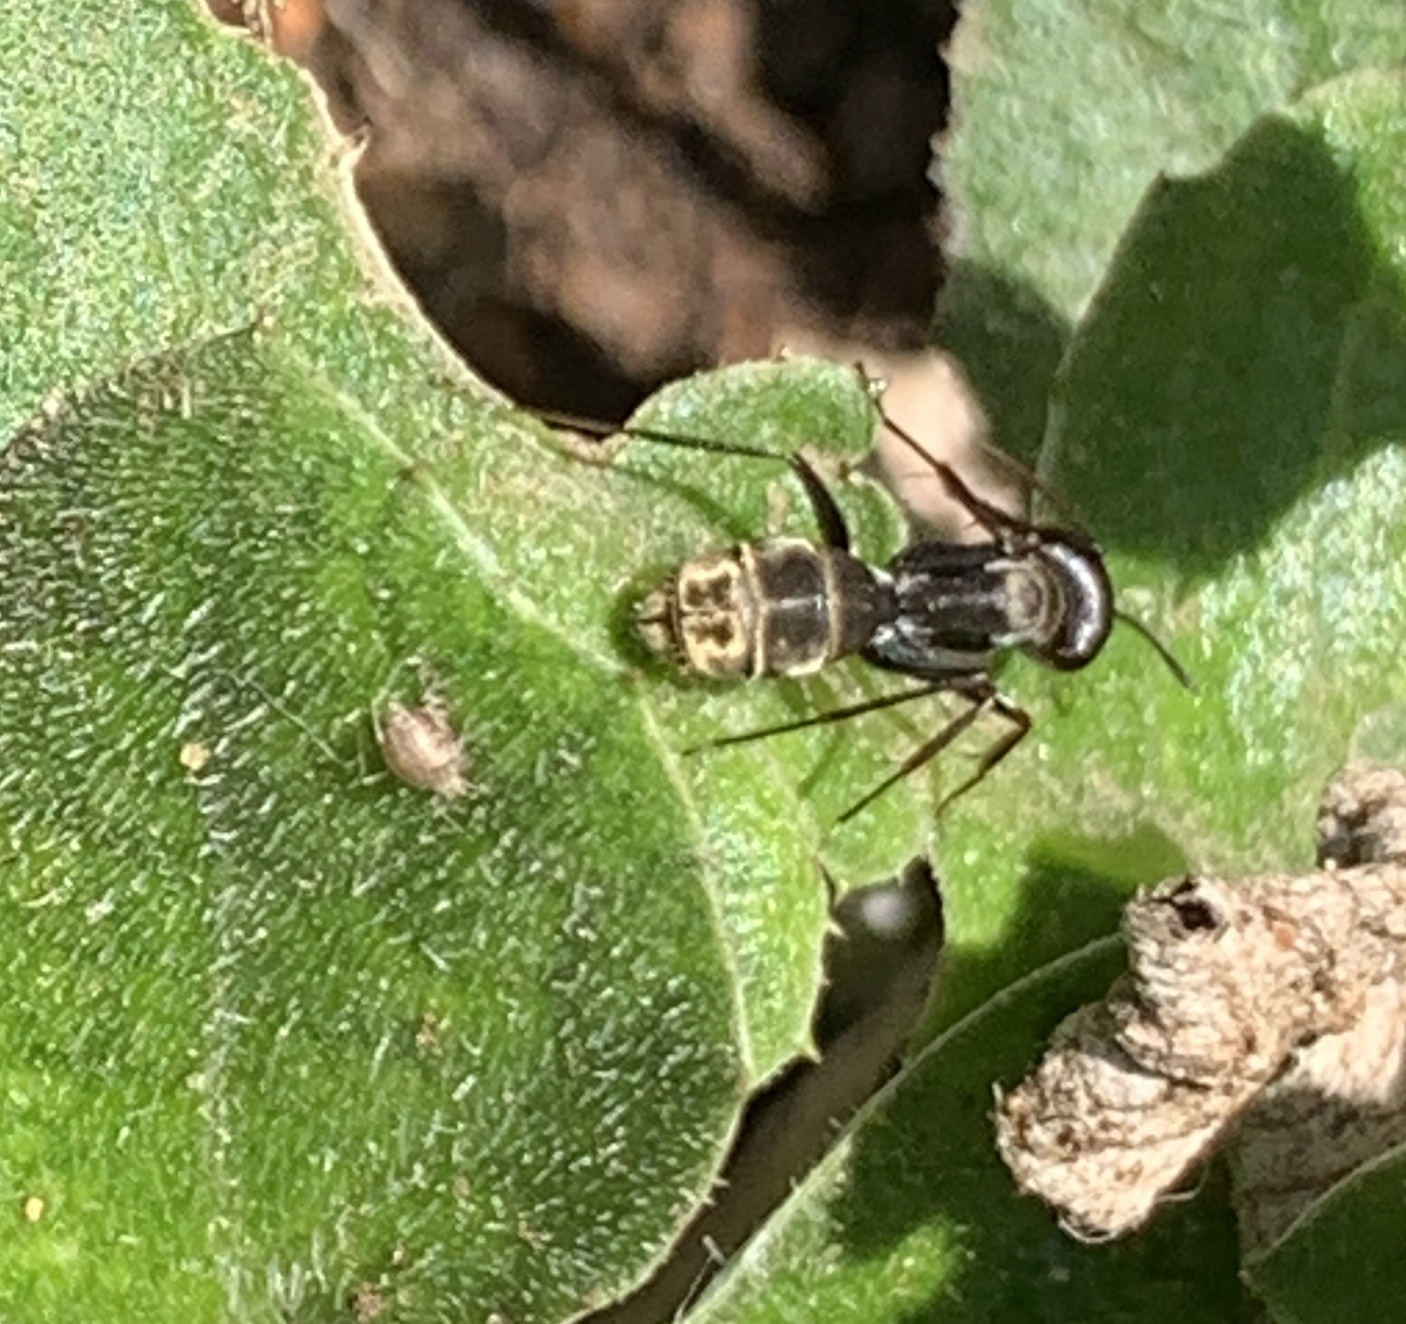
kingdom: Animalia
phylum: Arthropoda
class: Insecta
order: Hymenoptera
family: Formicidae
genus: Camponotus
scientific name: Camponotus cinctellus
